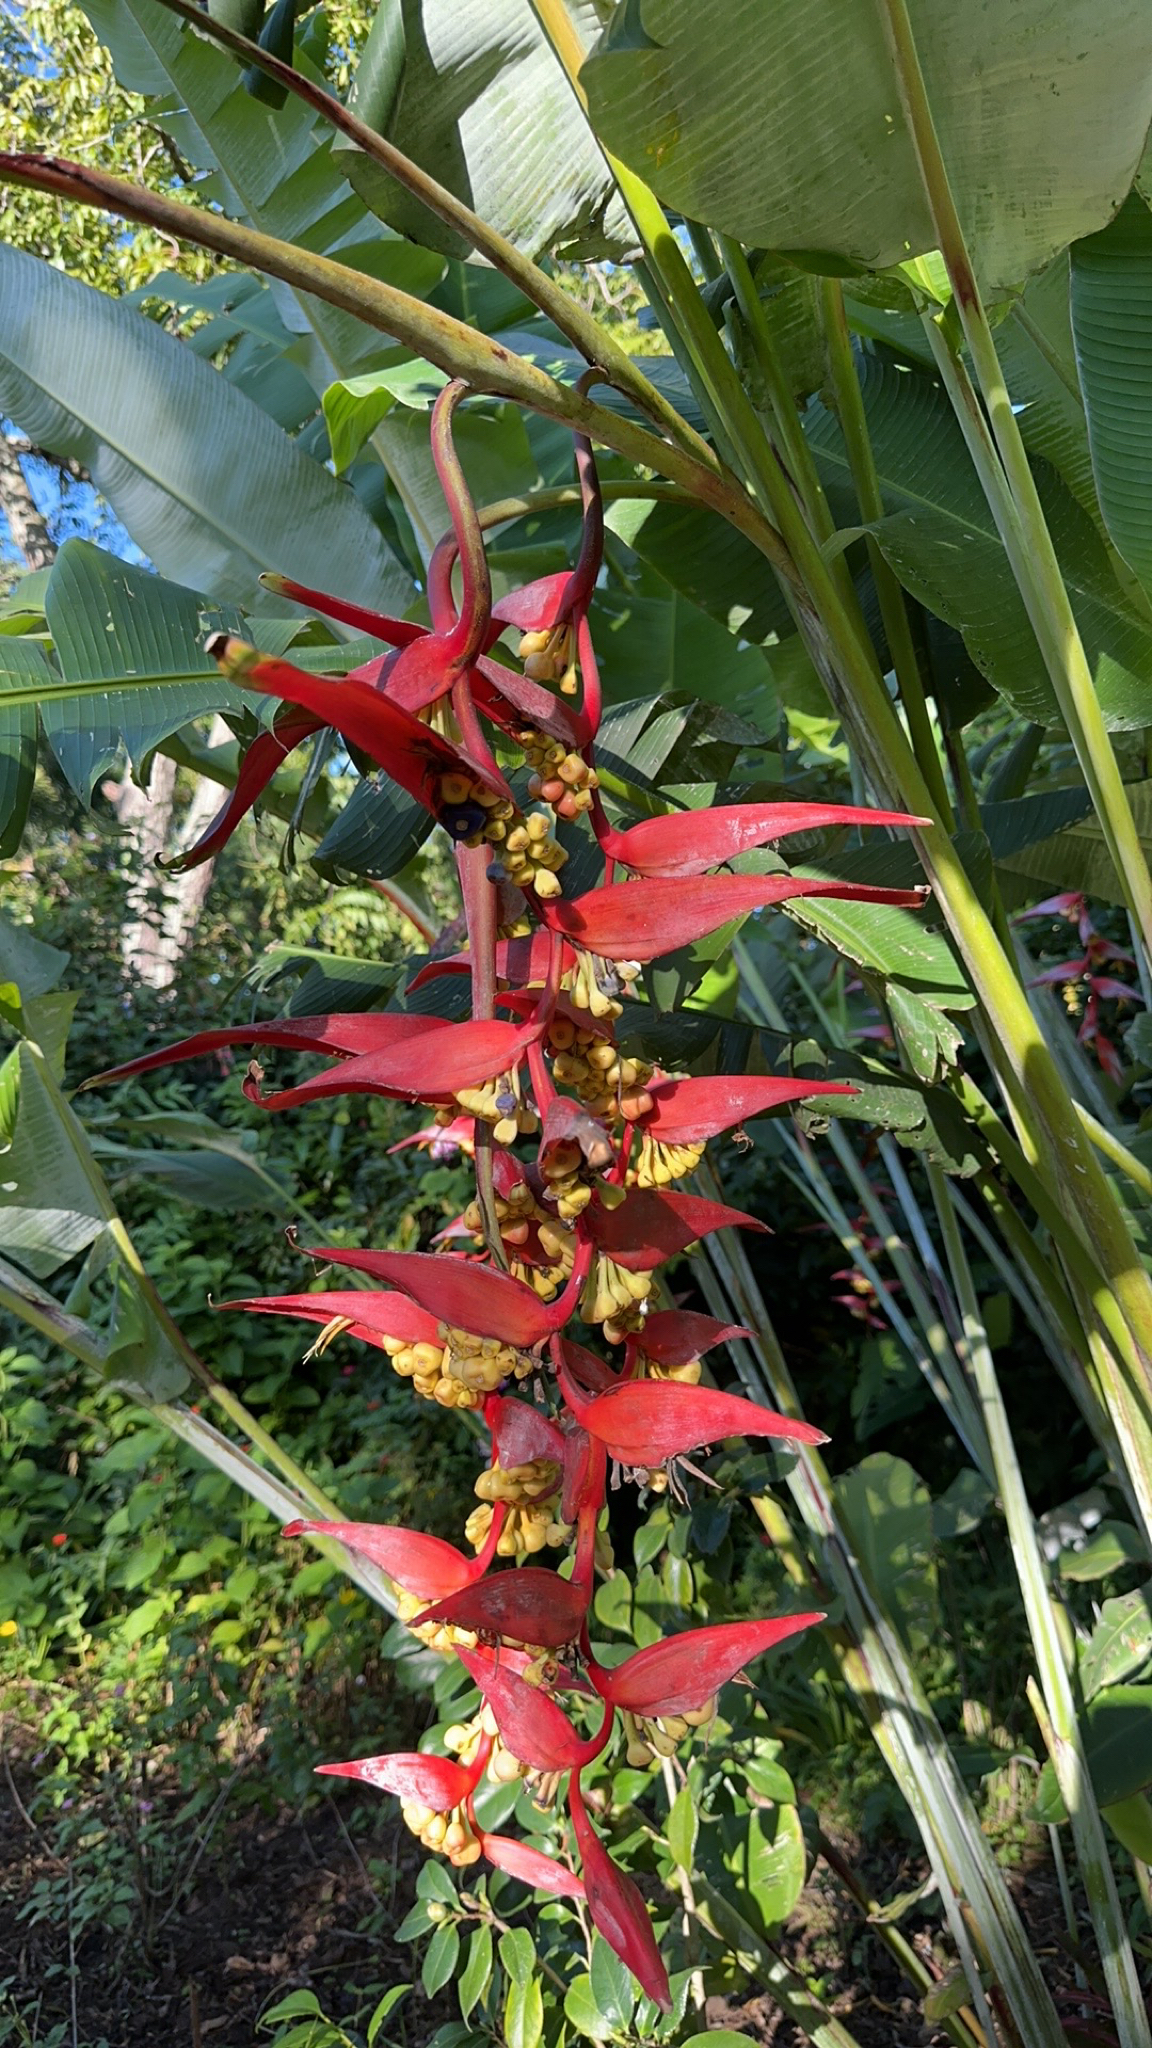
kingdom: Plantae
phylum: Tracheophyta
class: Liliopsida
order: Zingiberales
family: Heliconiaceae
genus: Heliconia
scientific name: Heliconia collinsiana
